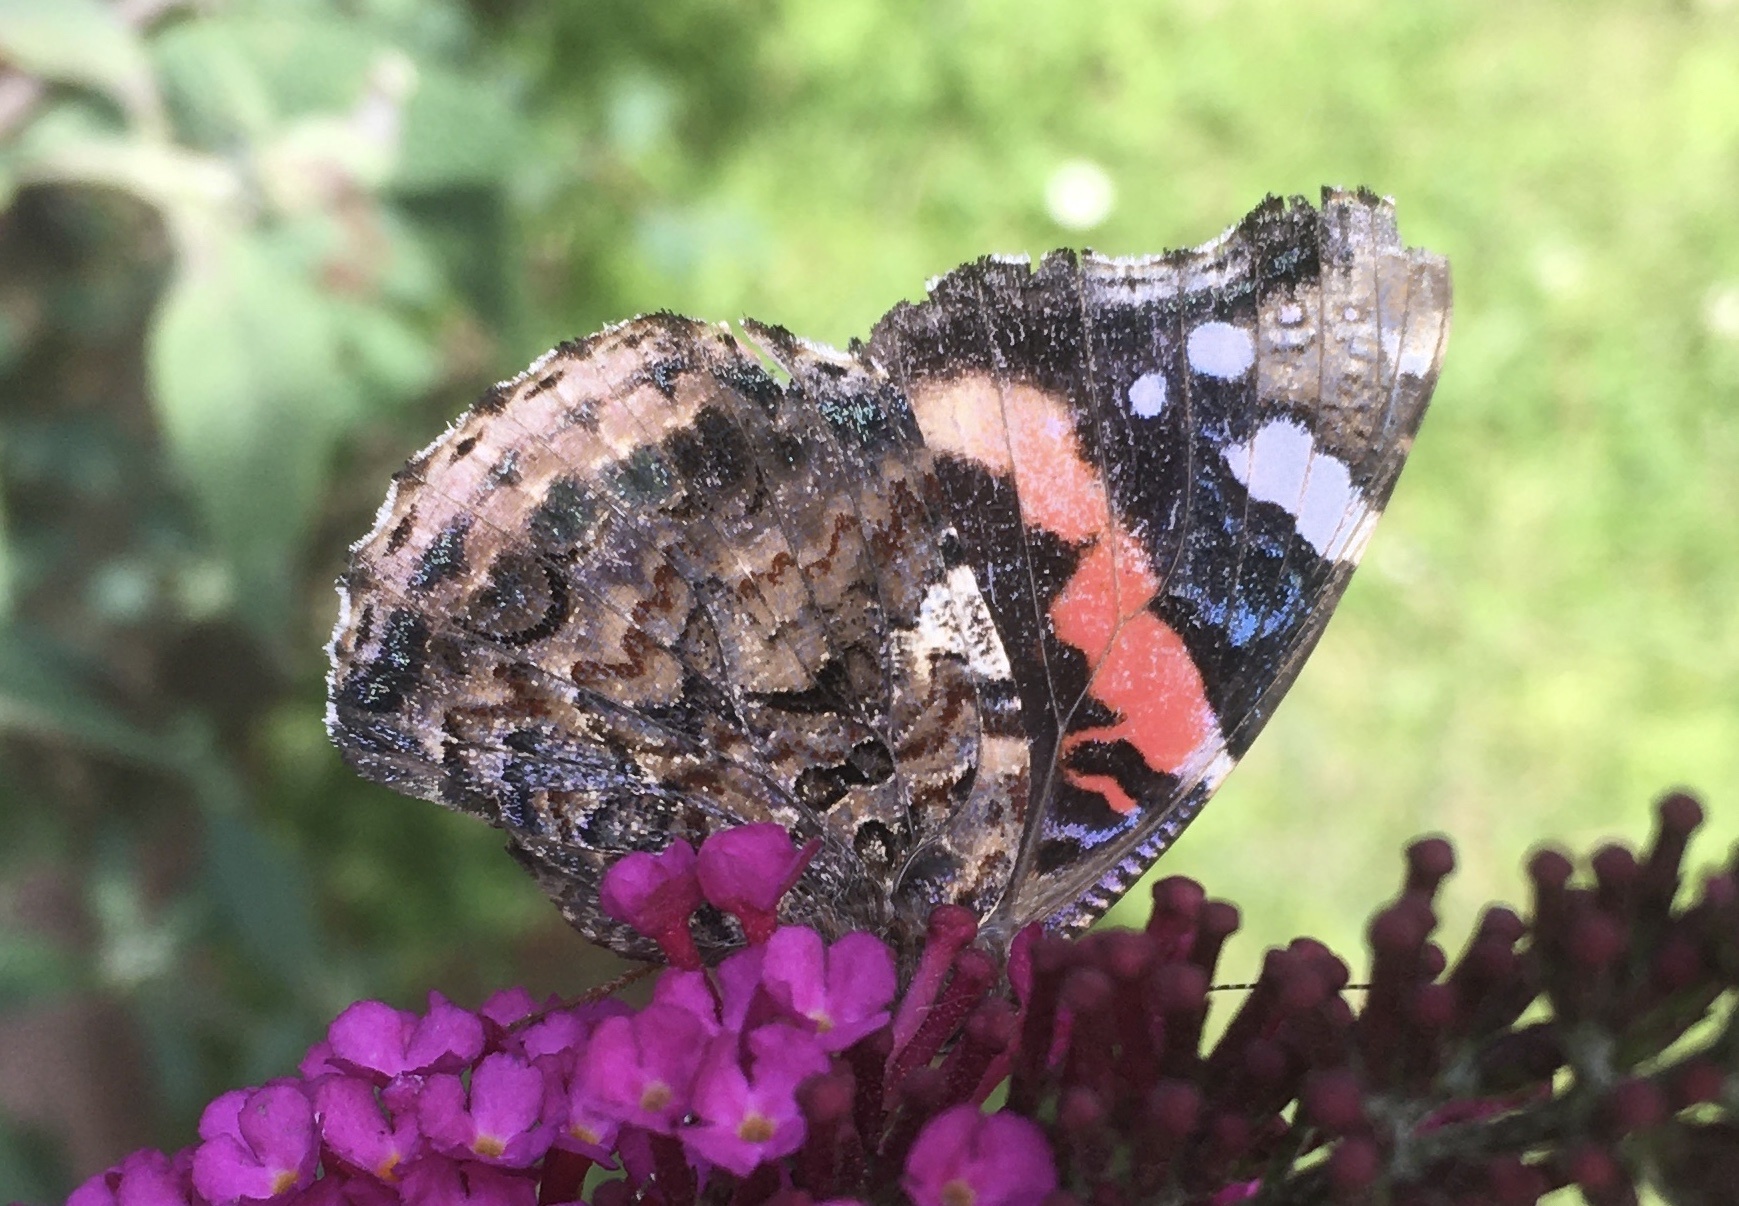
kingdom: Animalia
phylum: Arthropoda
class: Insecta
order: Lepidoptera
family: Nymphalidae
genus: Vanessa
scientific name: Vanessa atalanta
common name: Red admiral
